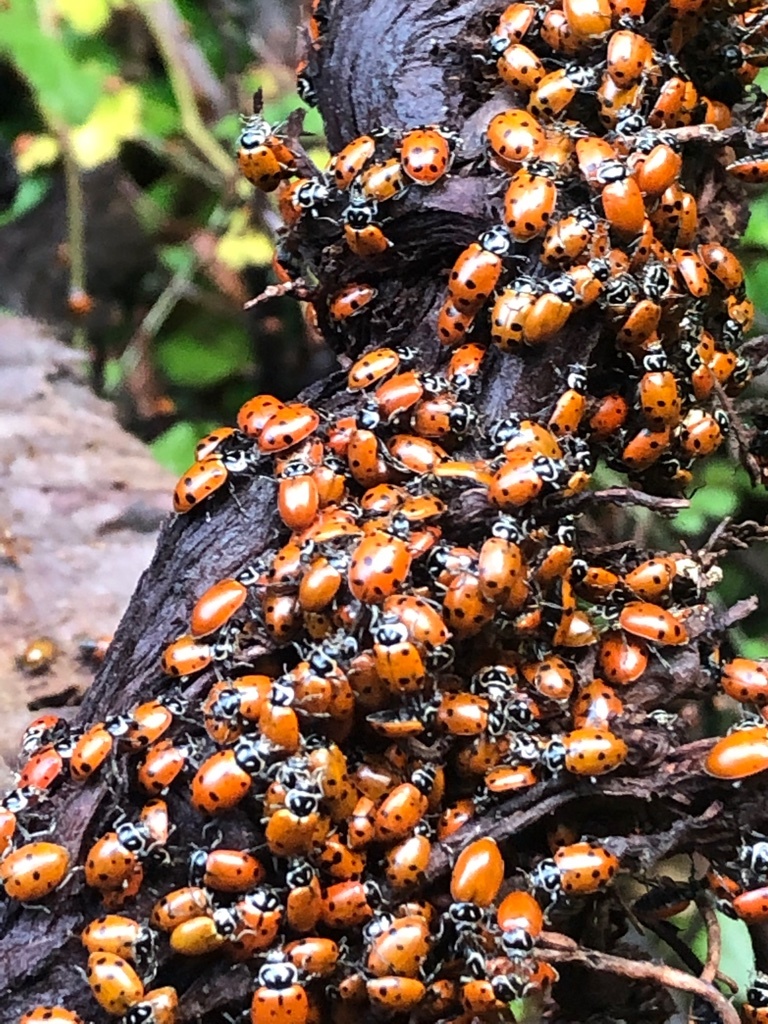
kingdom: Animalia
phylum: Arthropoda
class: Insecta
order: Coleoptera
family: Coccinellidae
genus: Hippodamia
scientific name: Hippodamia convergens
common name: Convergent lady beetle
